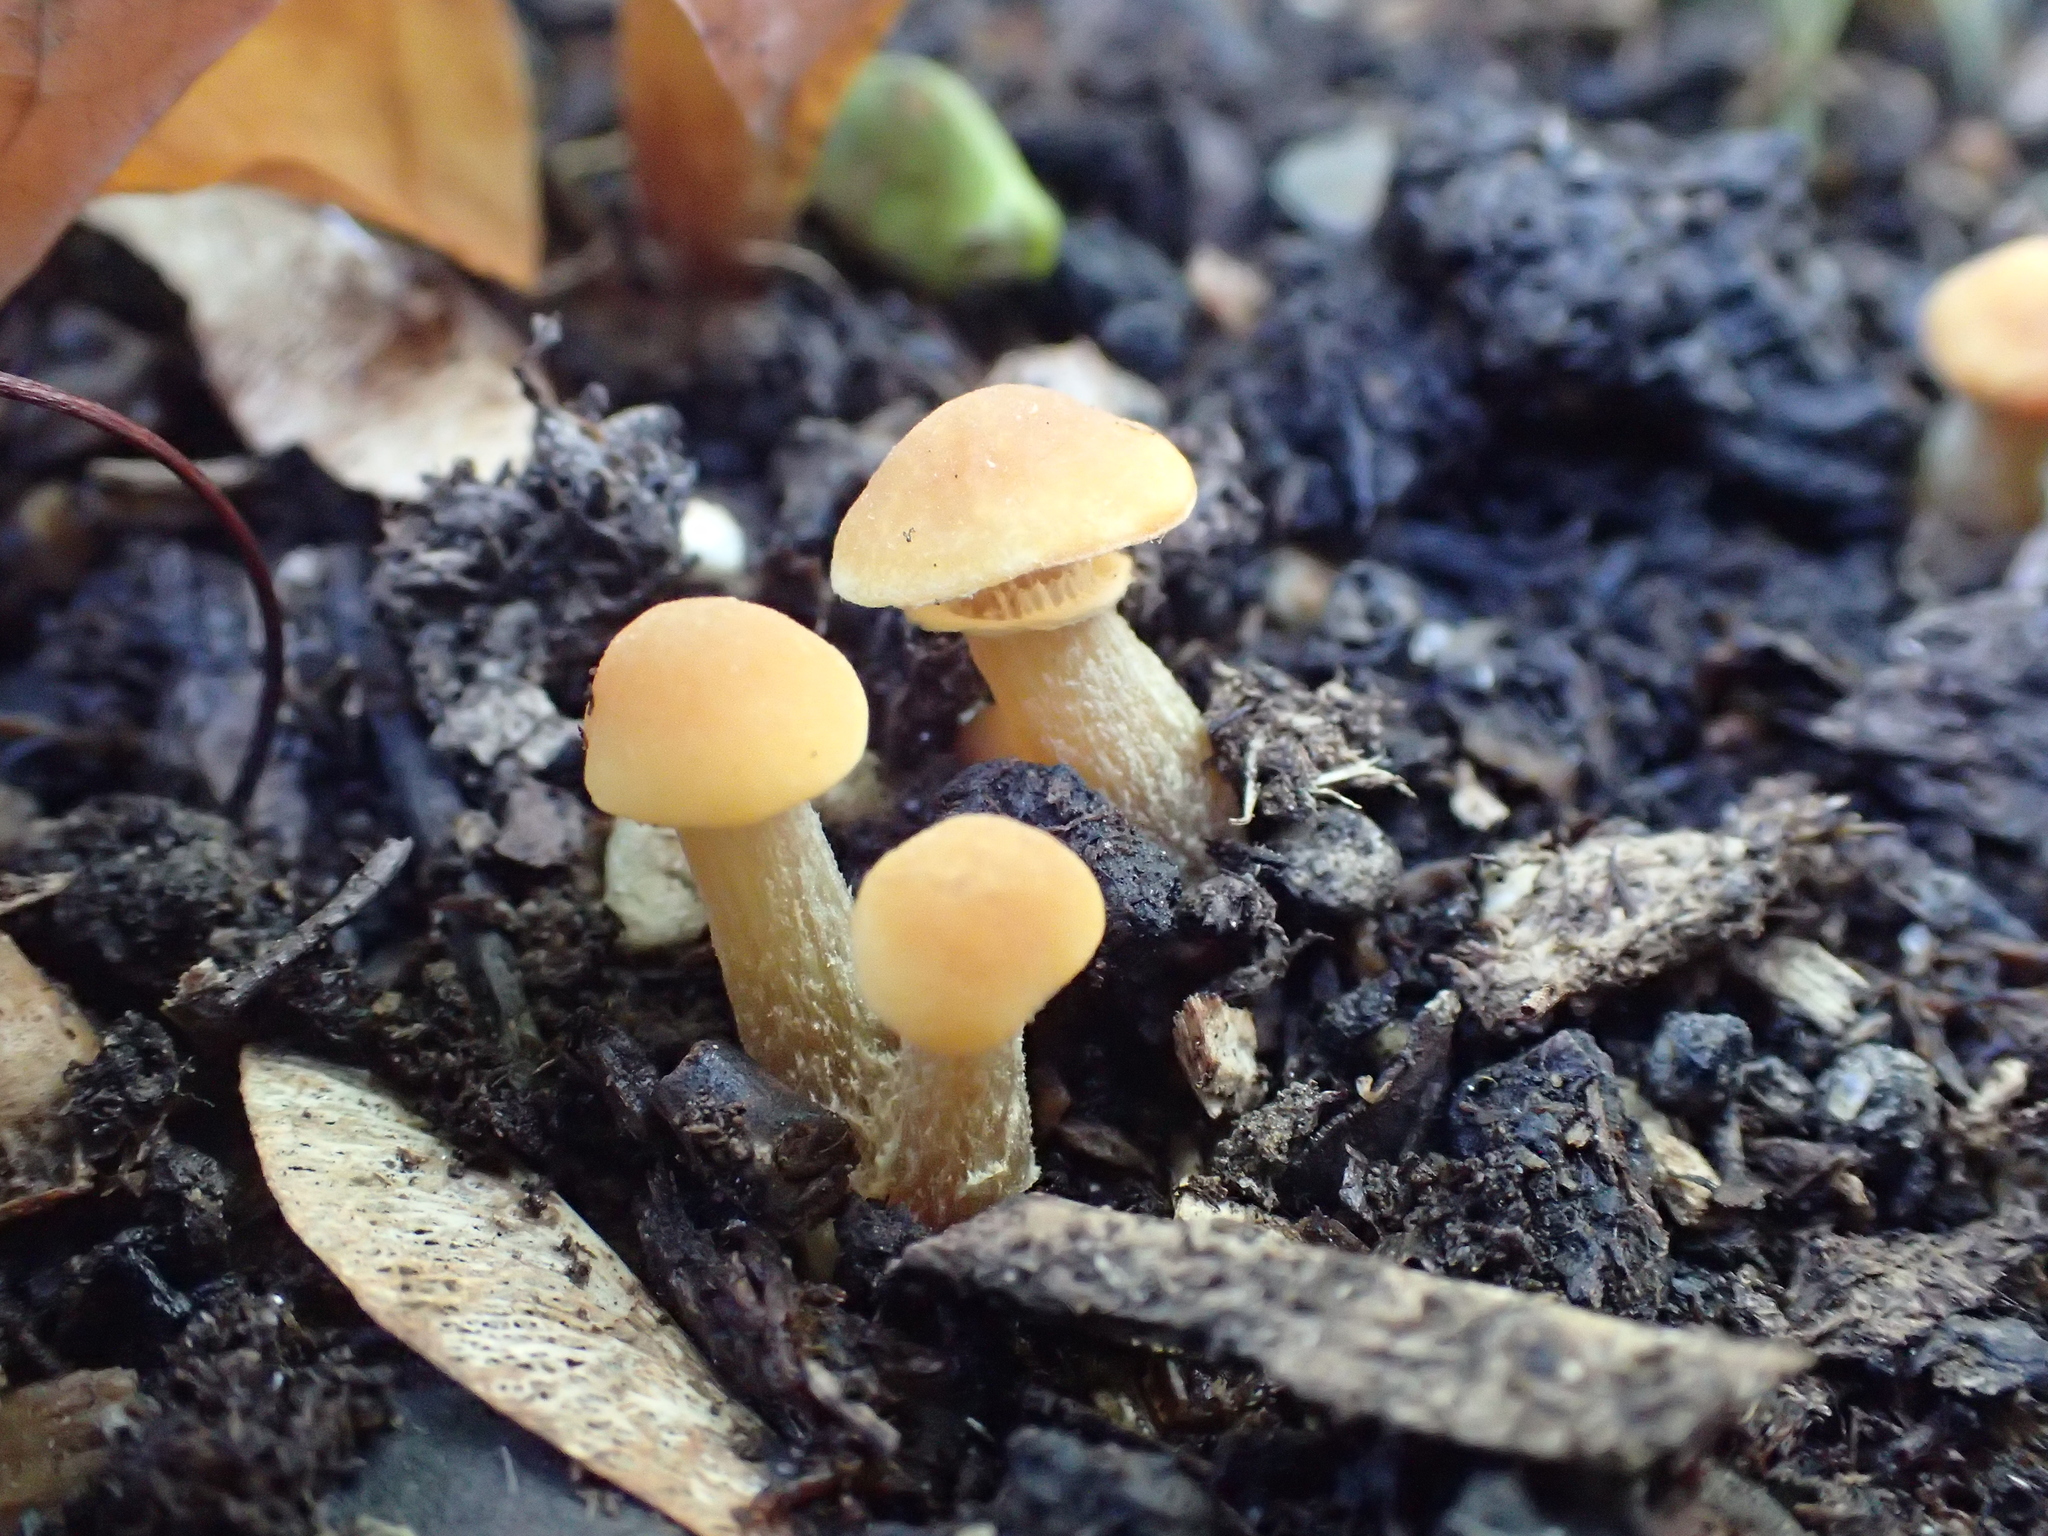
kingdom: Fungi
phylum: Basidiomycota
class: Agaricomycetes
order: Agaricales
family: Hymenogastraceae
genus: Galerina
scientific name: Galerina marginata
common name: Funeral bell
